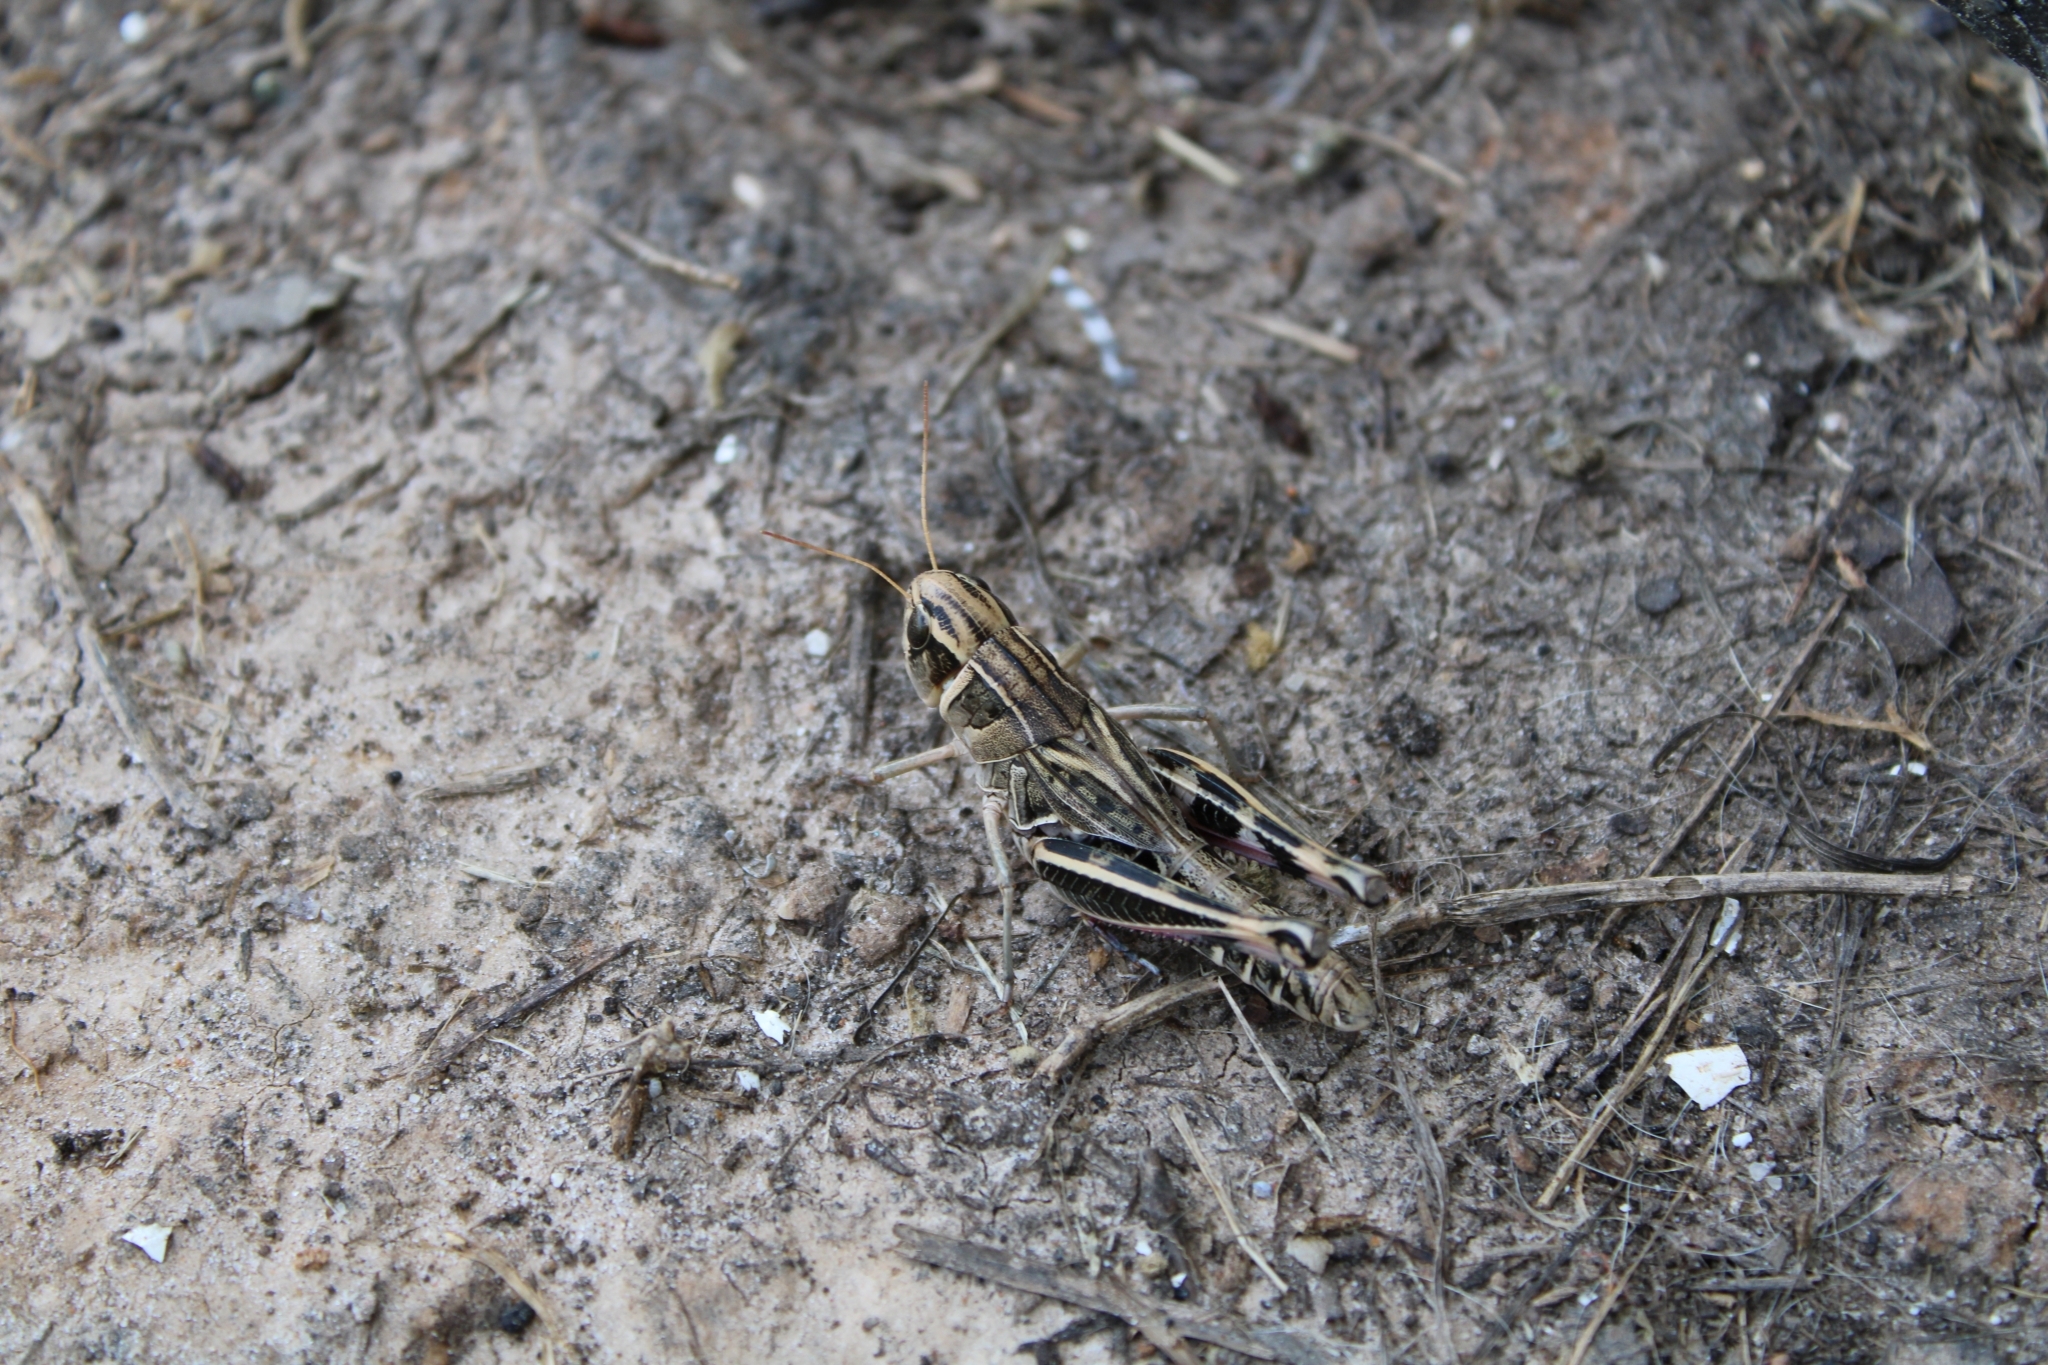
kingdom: Animalia
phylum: Arthropoda
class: Insecta
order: Orthoptera
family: Acrididae
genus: Boopedon
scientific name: Boopedon gracile
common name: Graceful range grasshopper
